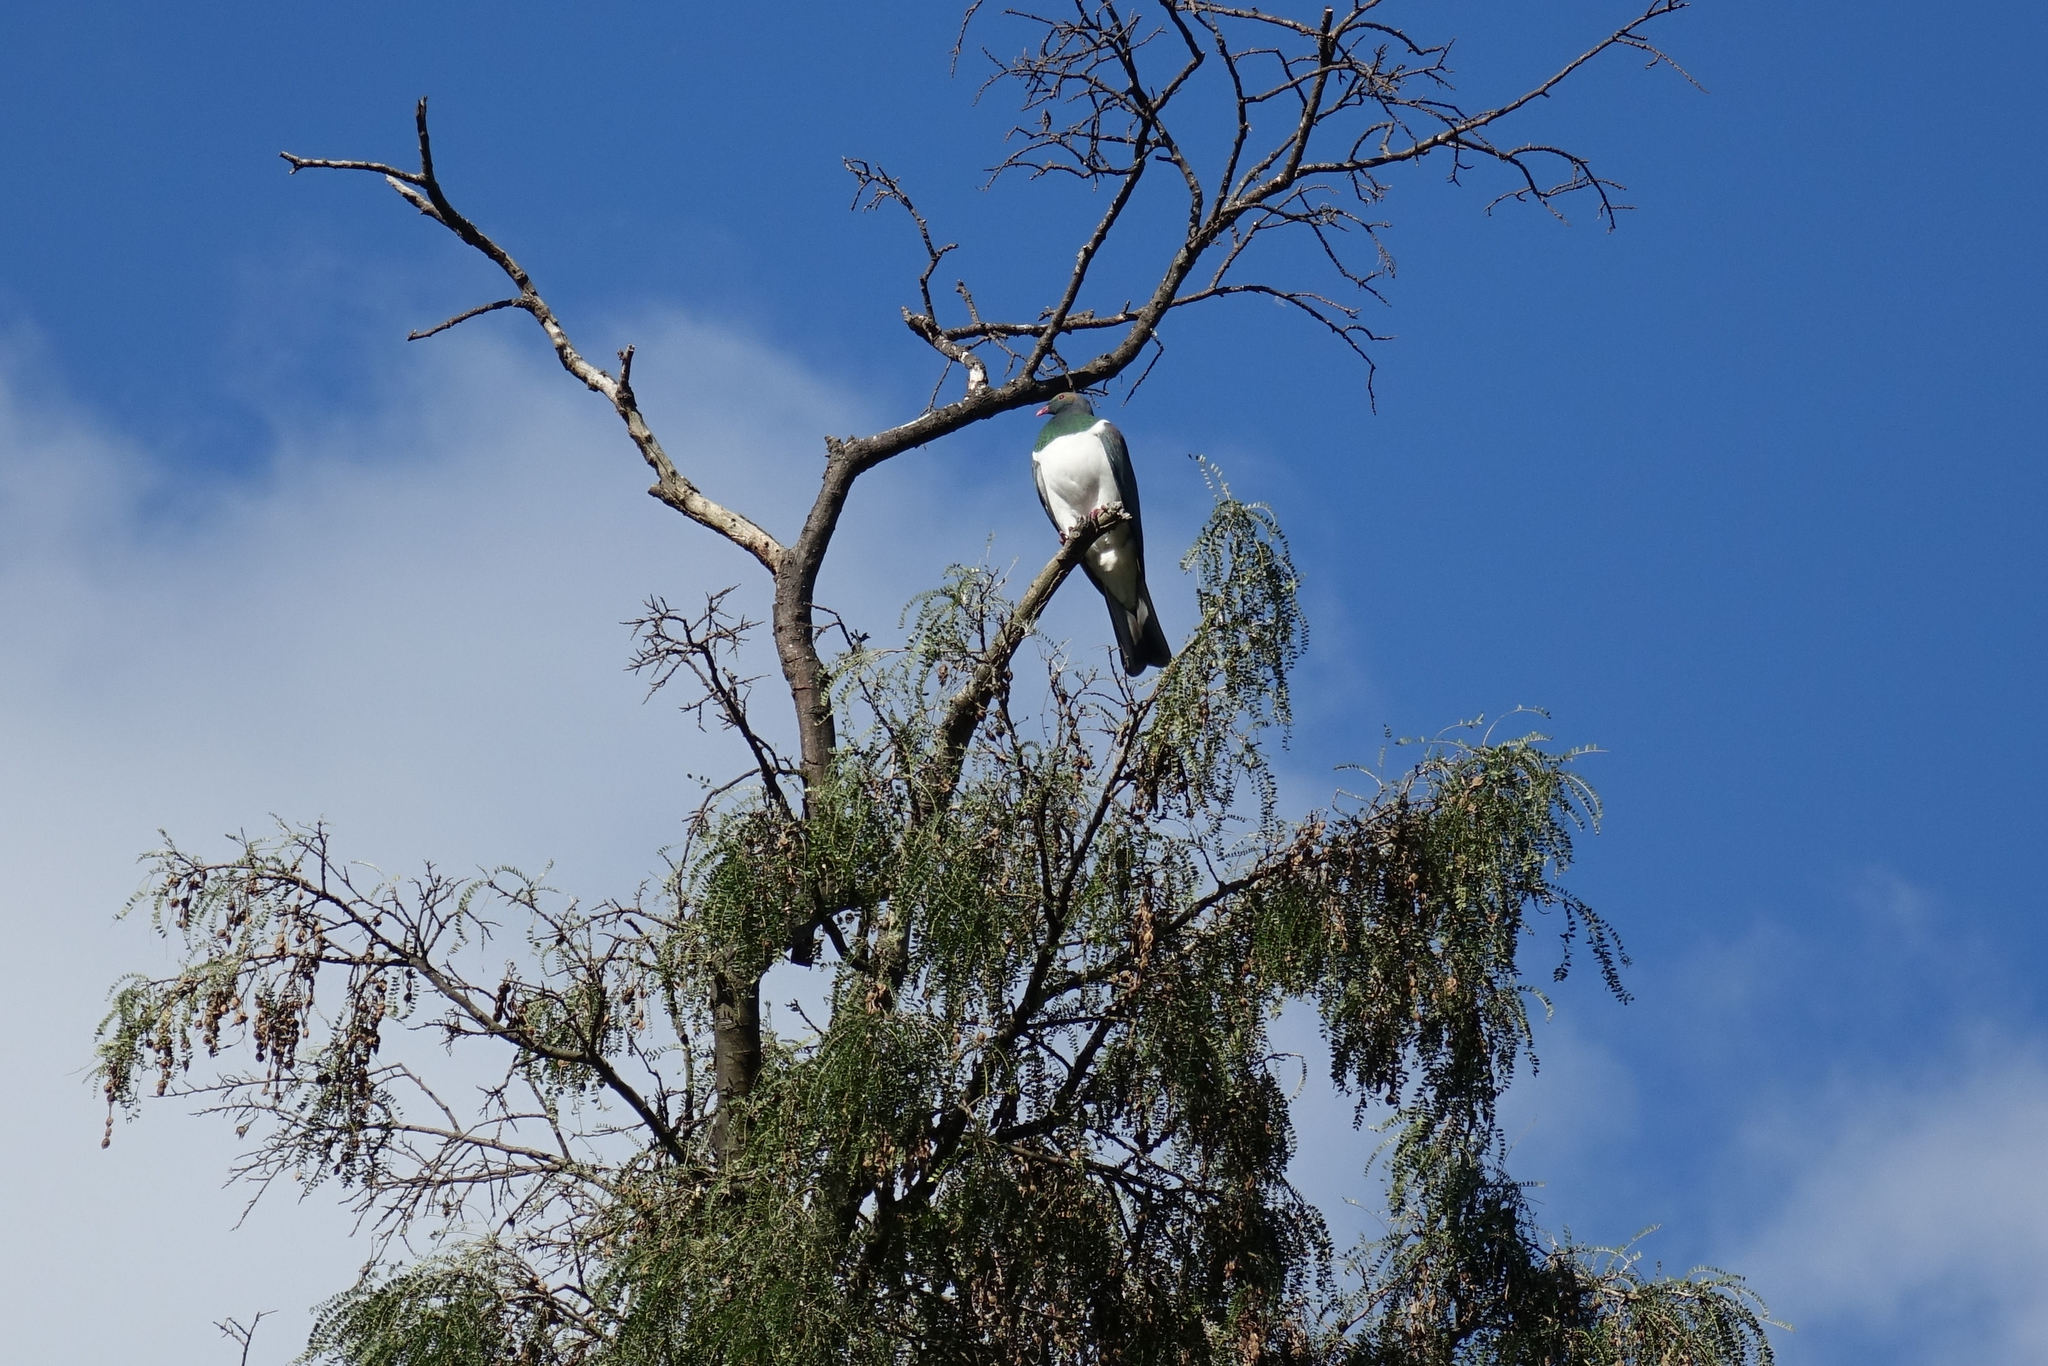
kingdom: Animalia
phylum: Chordata
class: Aves
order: Columbiformes
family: Columbidae
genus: Hemiphaga
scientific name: Hemiphaga novaeseelandiae
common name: New zealand pigeon
